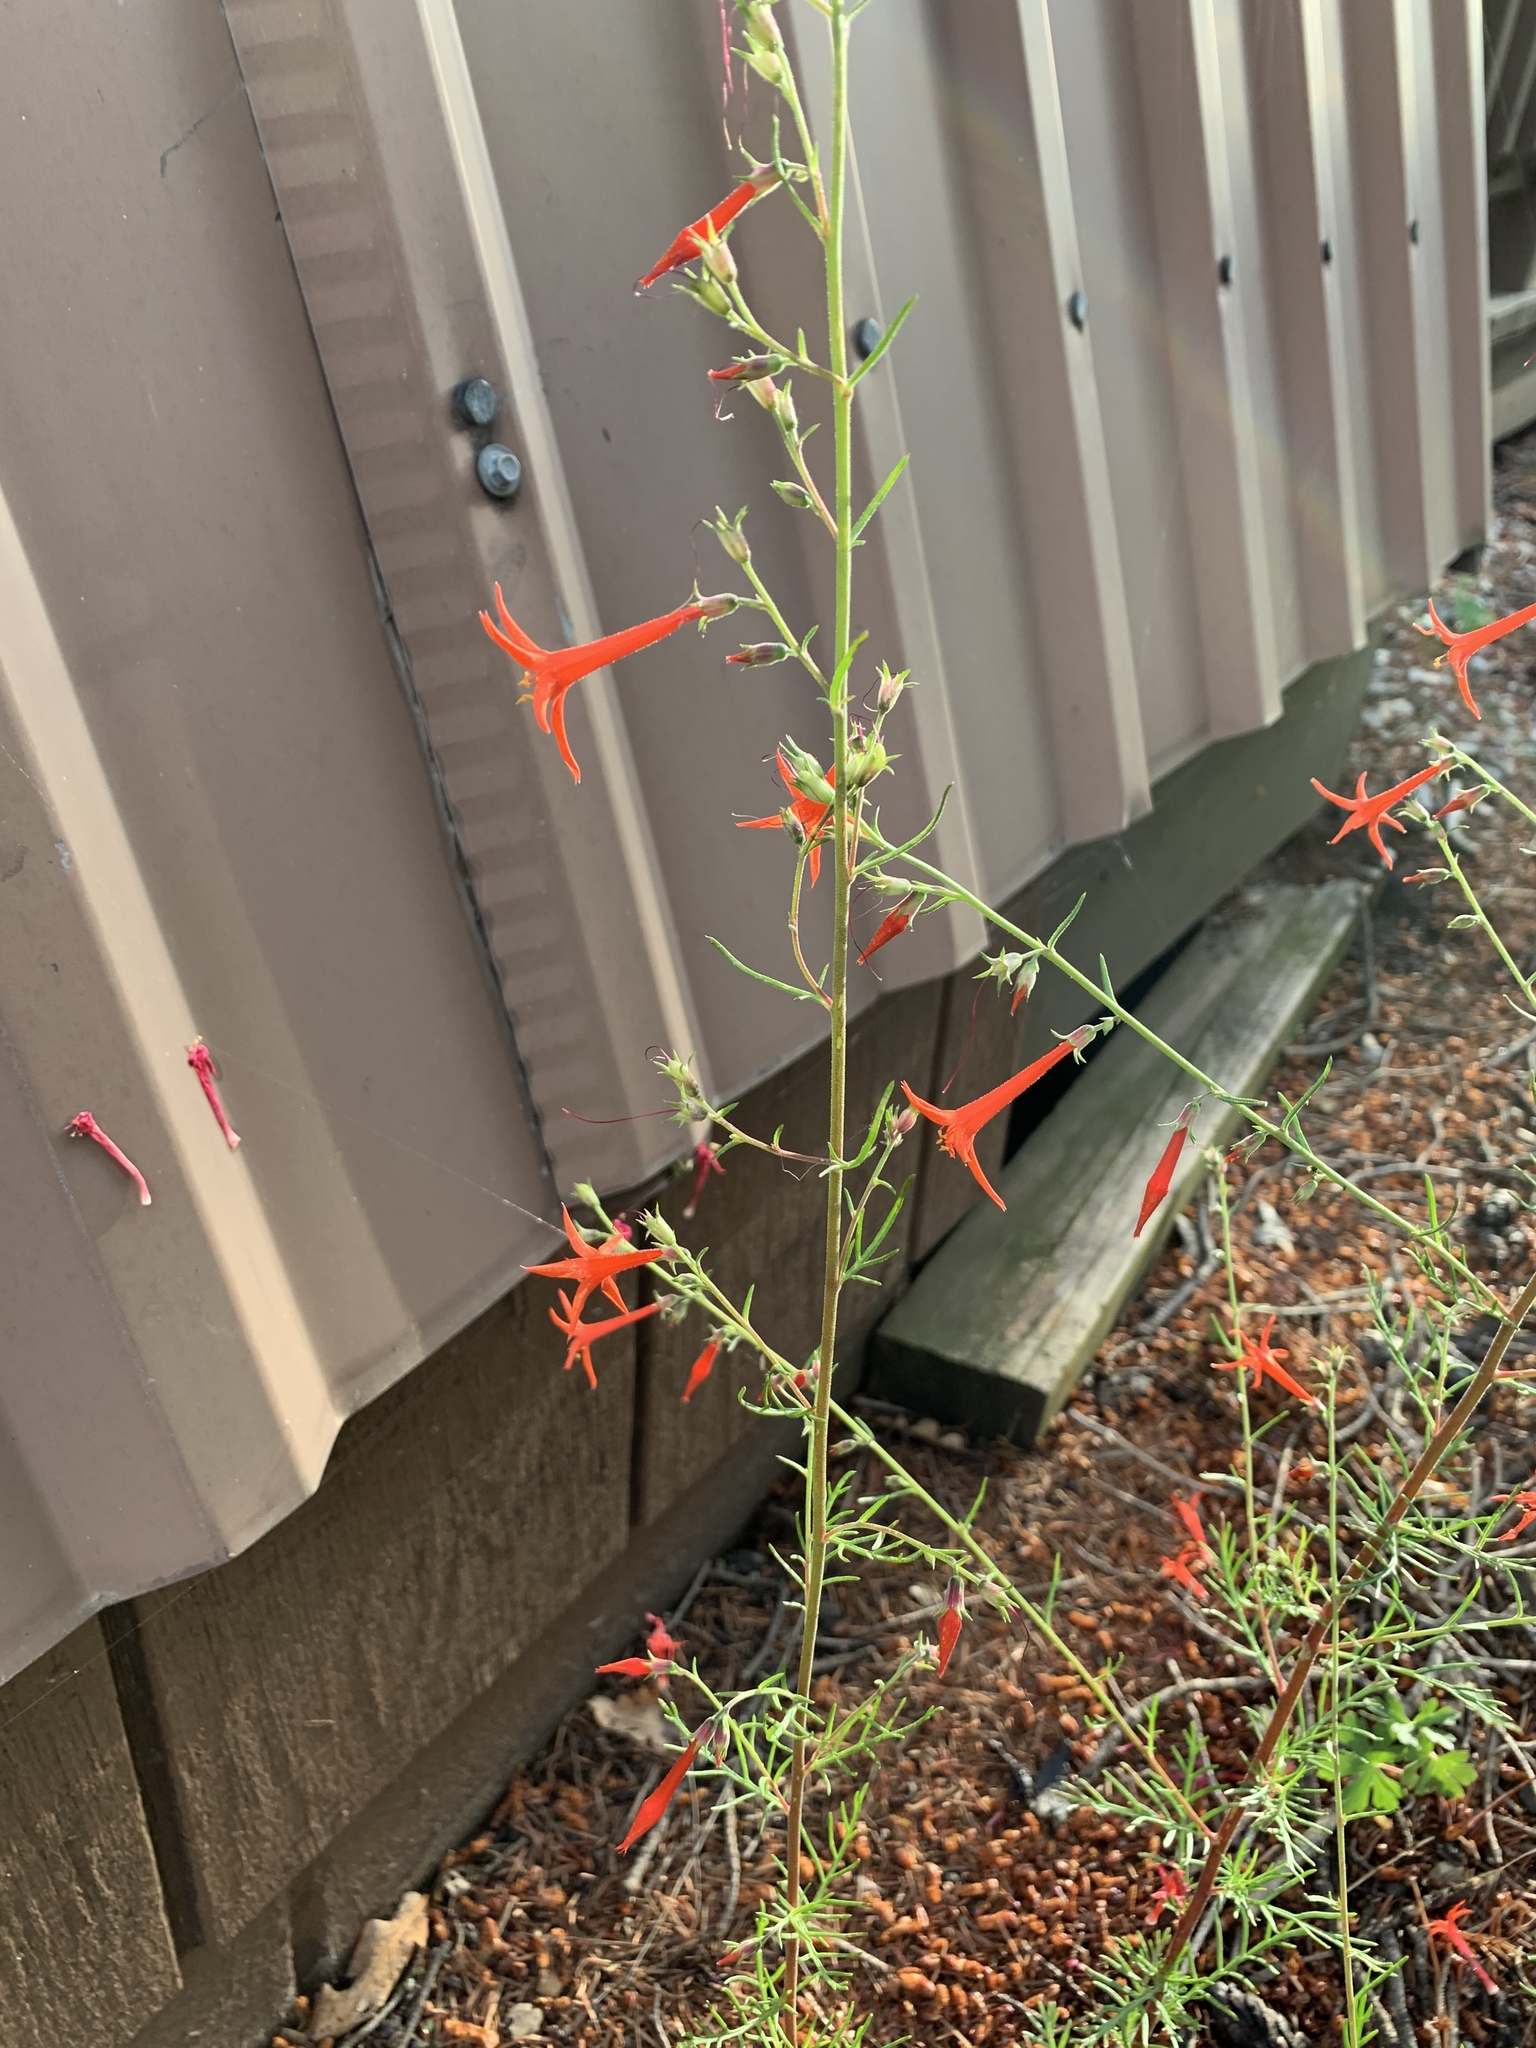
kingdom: Plantae
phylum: Tracheophyta
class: Magnoliopsida
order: Ericales
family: Polemoniaceae
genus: Ipomopsis
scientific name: Ipomopsis aggregata
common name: Scarlet gilia
